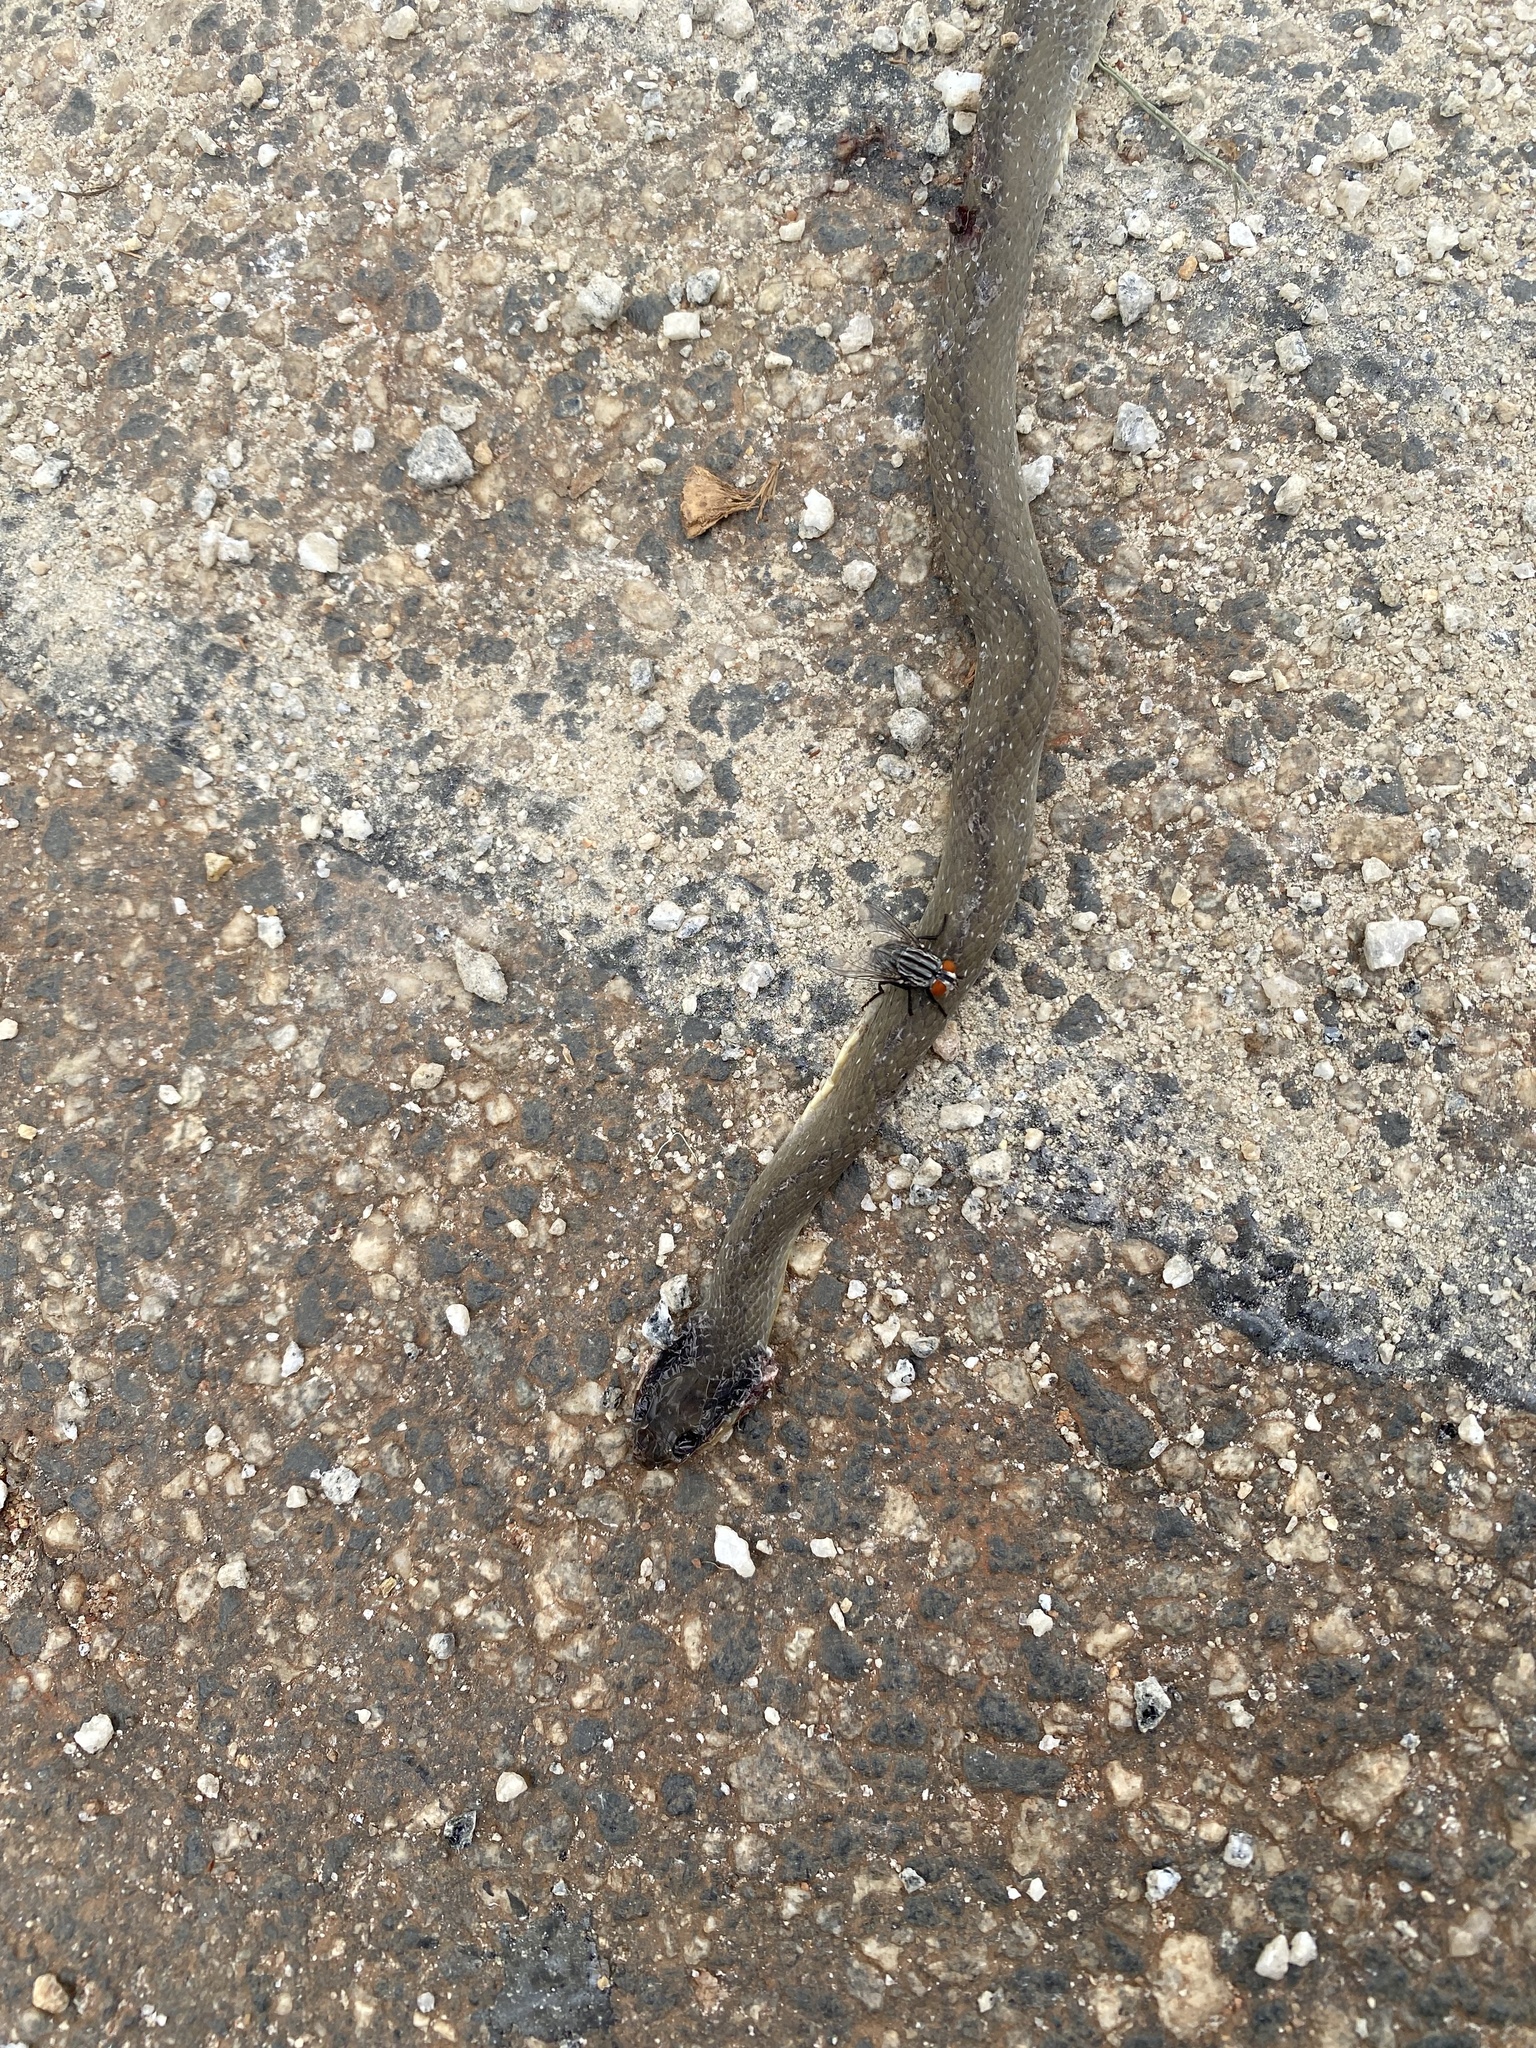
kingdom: Animalia
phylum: Chordata
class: Squamata
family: Colubridae
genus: Crotaphopeltis
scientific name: Crotaphopeltis hotamboeia
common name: Red-lipped snake
